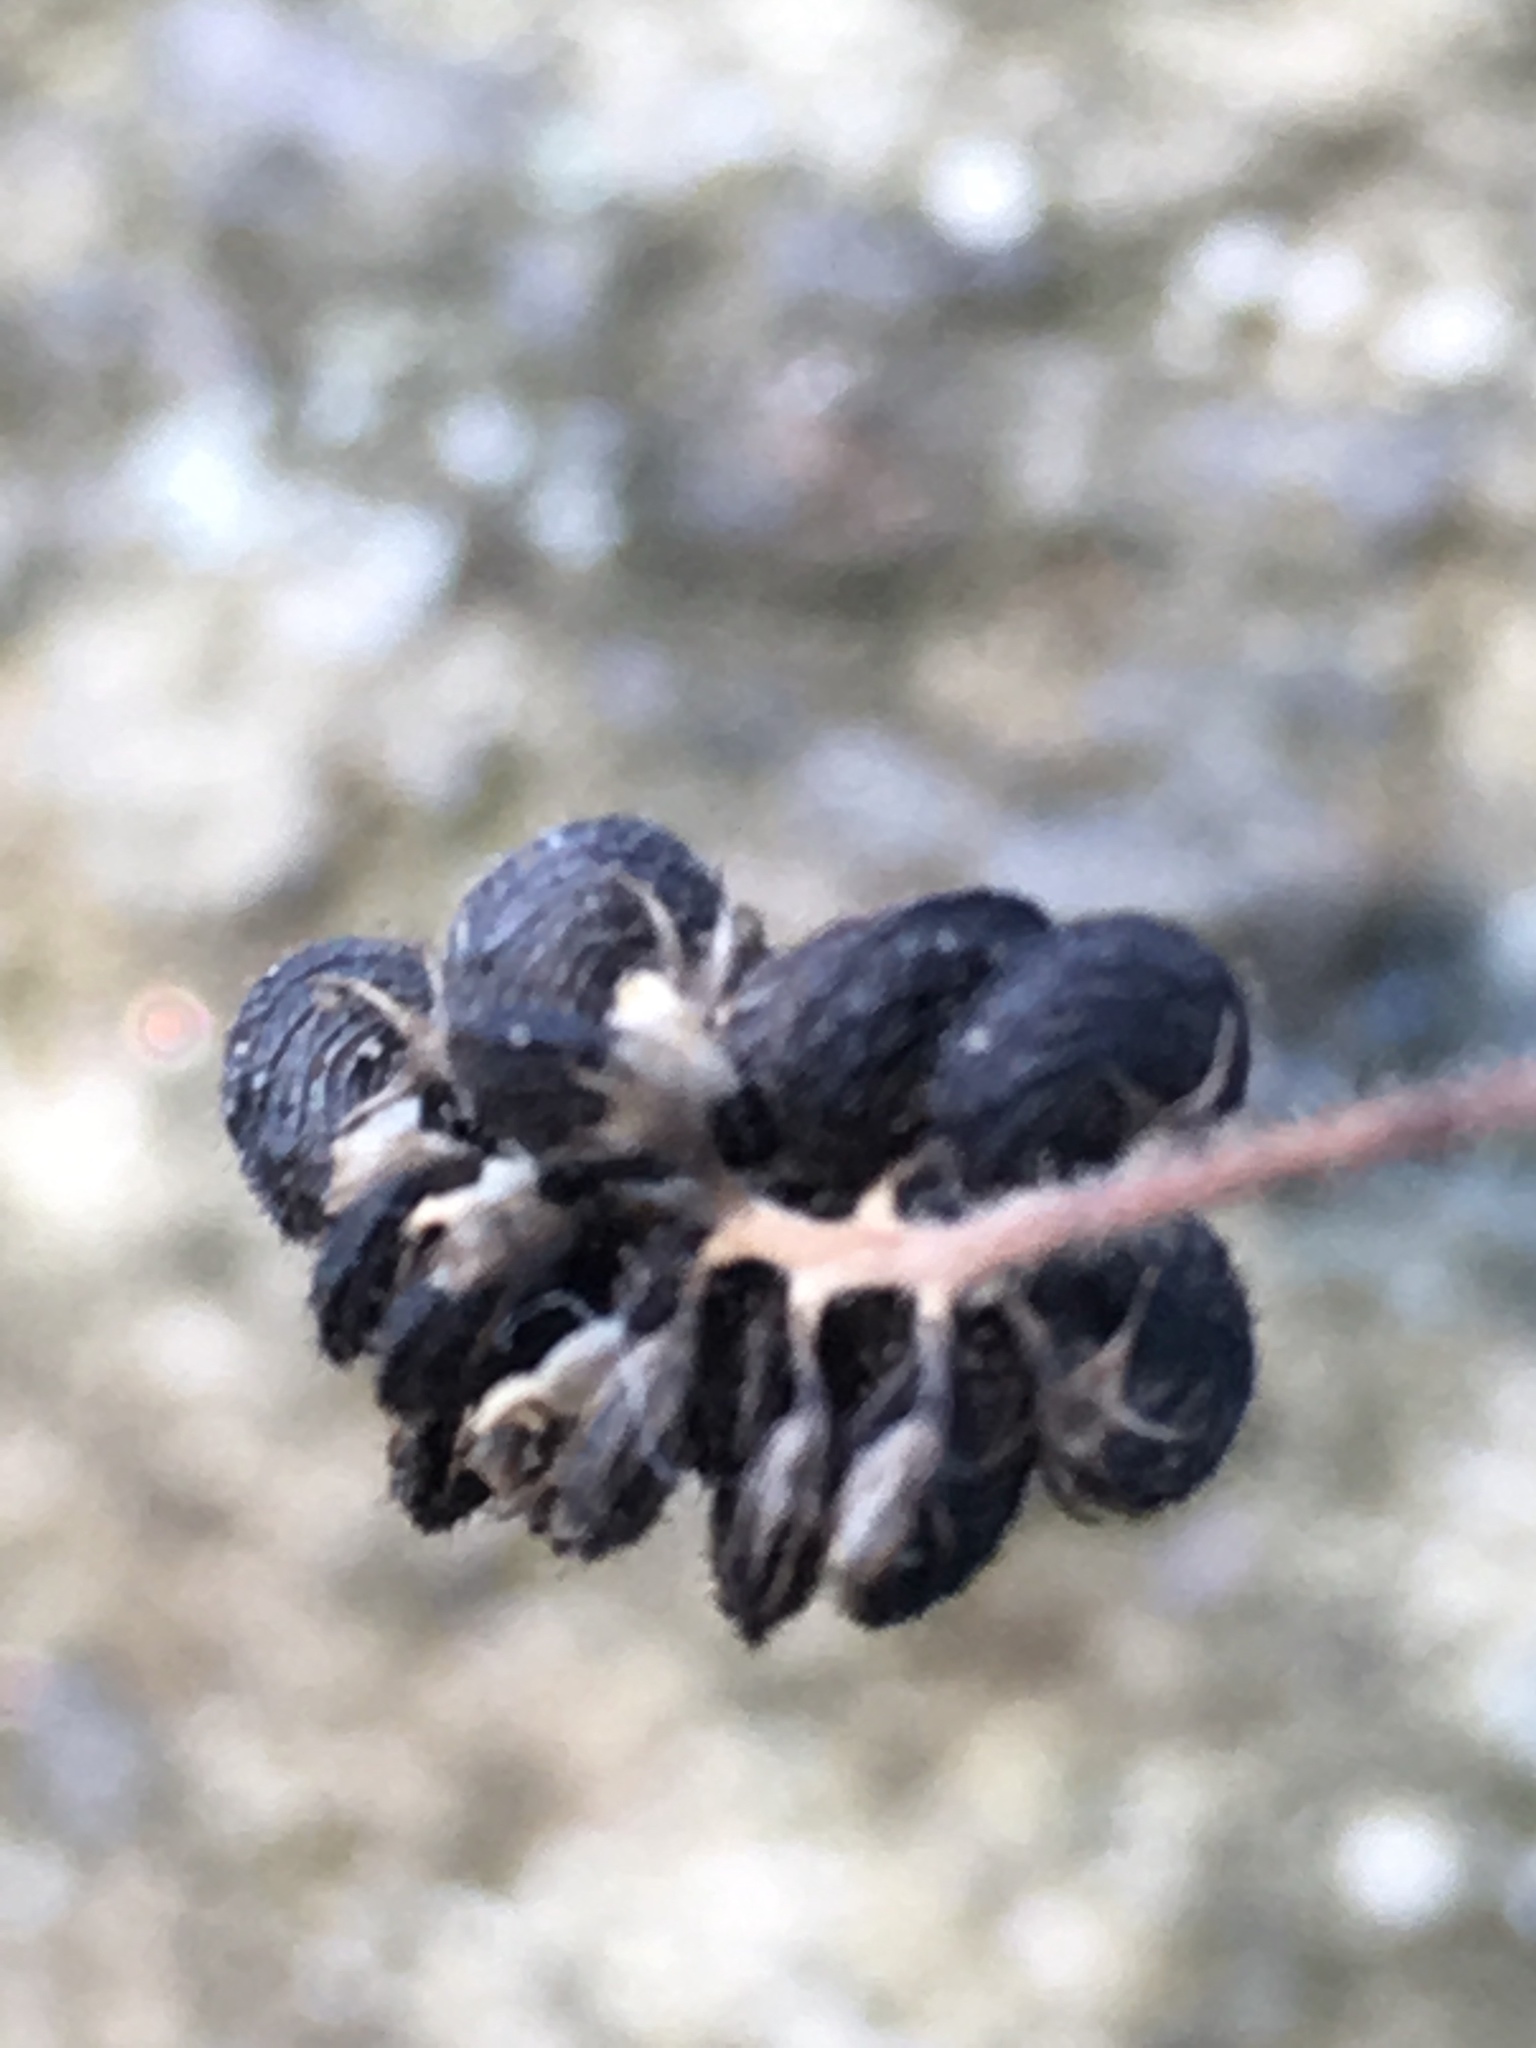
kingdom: Plantae
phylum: Tracheophyta
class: Magnoliopsida
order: Fabales
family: Fabaceae
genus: Medicago
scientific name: Medicago lupulina
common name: Black medick
